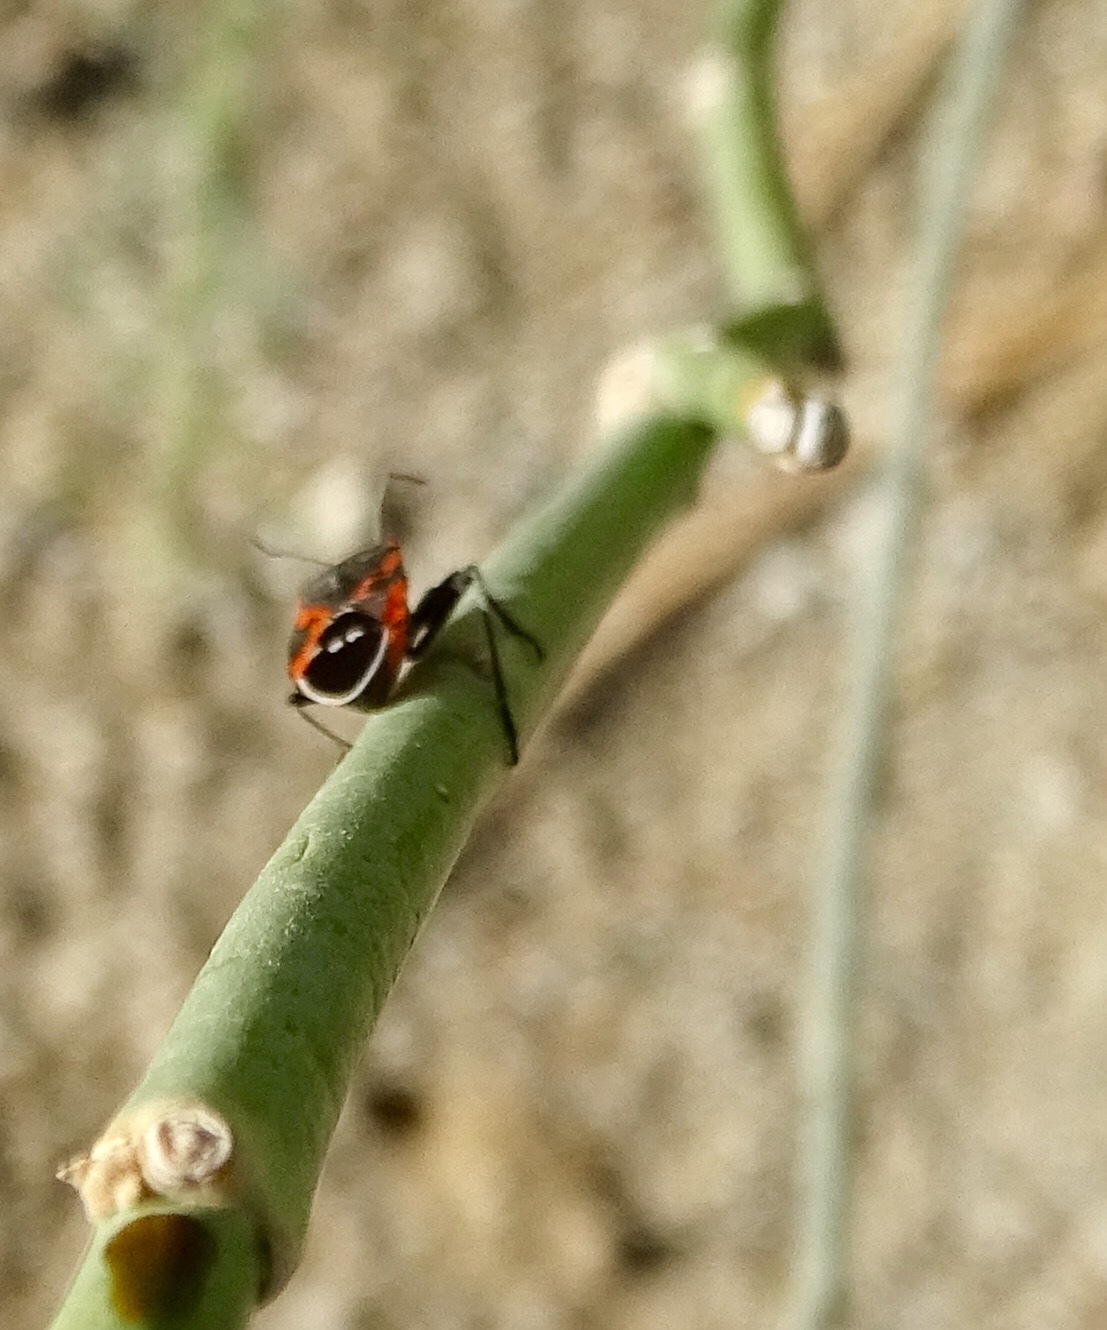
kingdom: Animalia
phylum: Arthropoda
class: Insecta
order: Hemiptera
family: Lygaeidae
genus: Lygaeus
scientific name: Lygaeus kalmii
